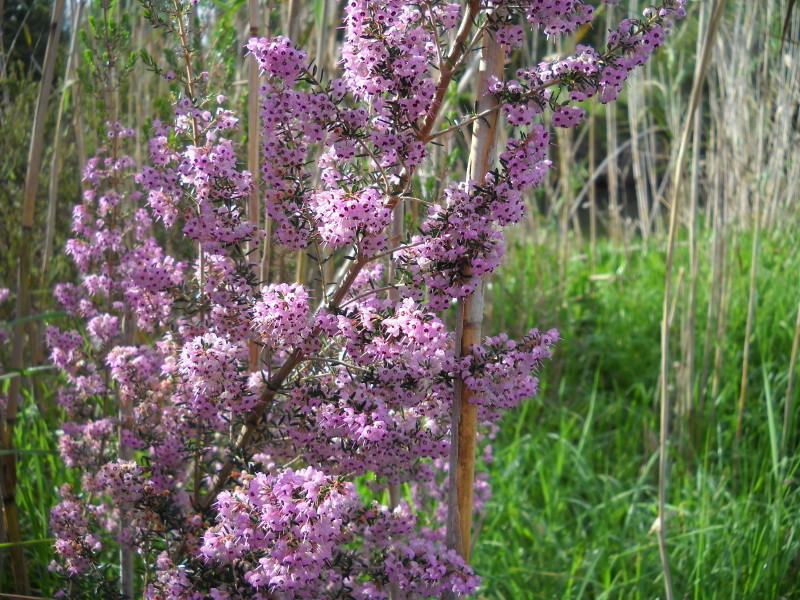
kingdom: Plantae
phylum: Tracheophyta
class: Magnoliopsida
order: Ericales
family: Ericaceae
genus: Erica
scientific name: Erica canaliculata
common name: Hairy grey heather
